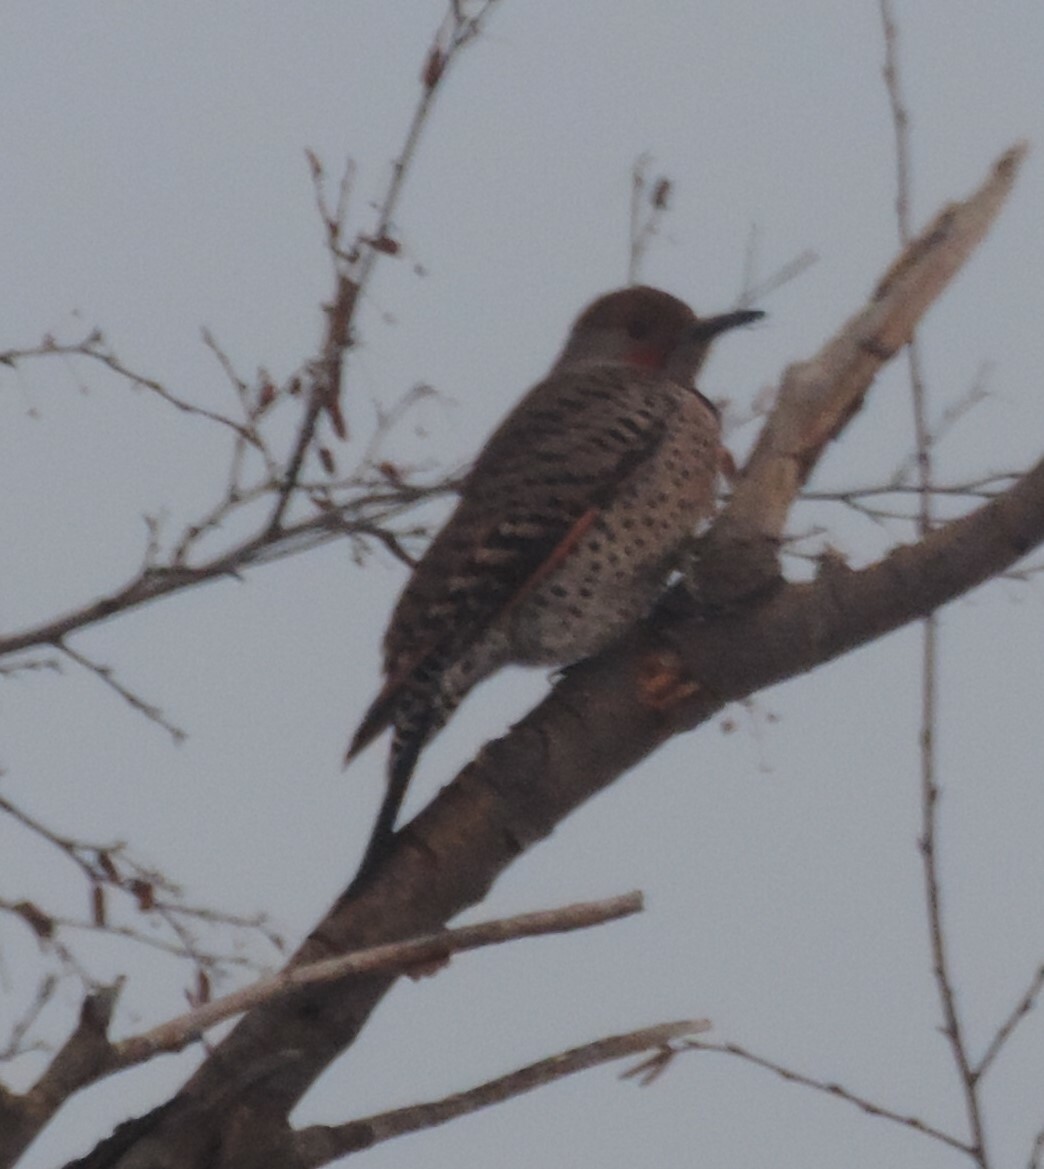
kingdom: Animalia
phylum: Chordata
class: Aves
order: Piciformes
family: Picidae
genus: Colaptes
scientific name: Colaptes auratus
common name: Northern flicker
